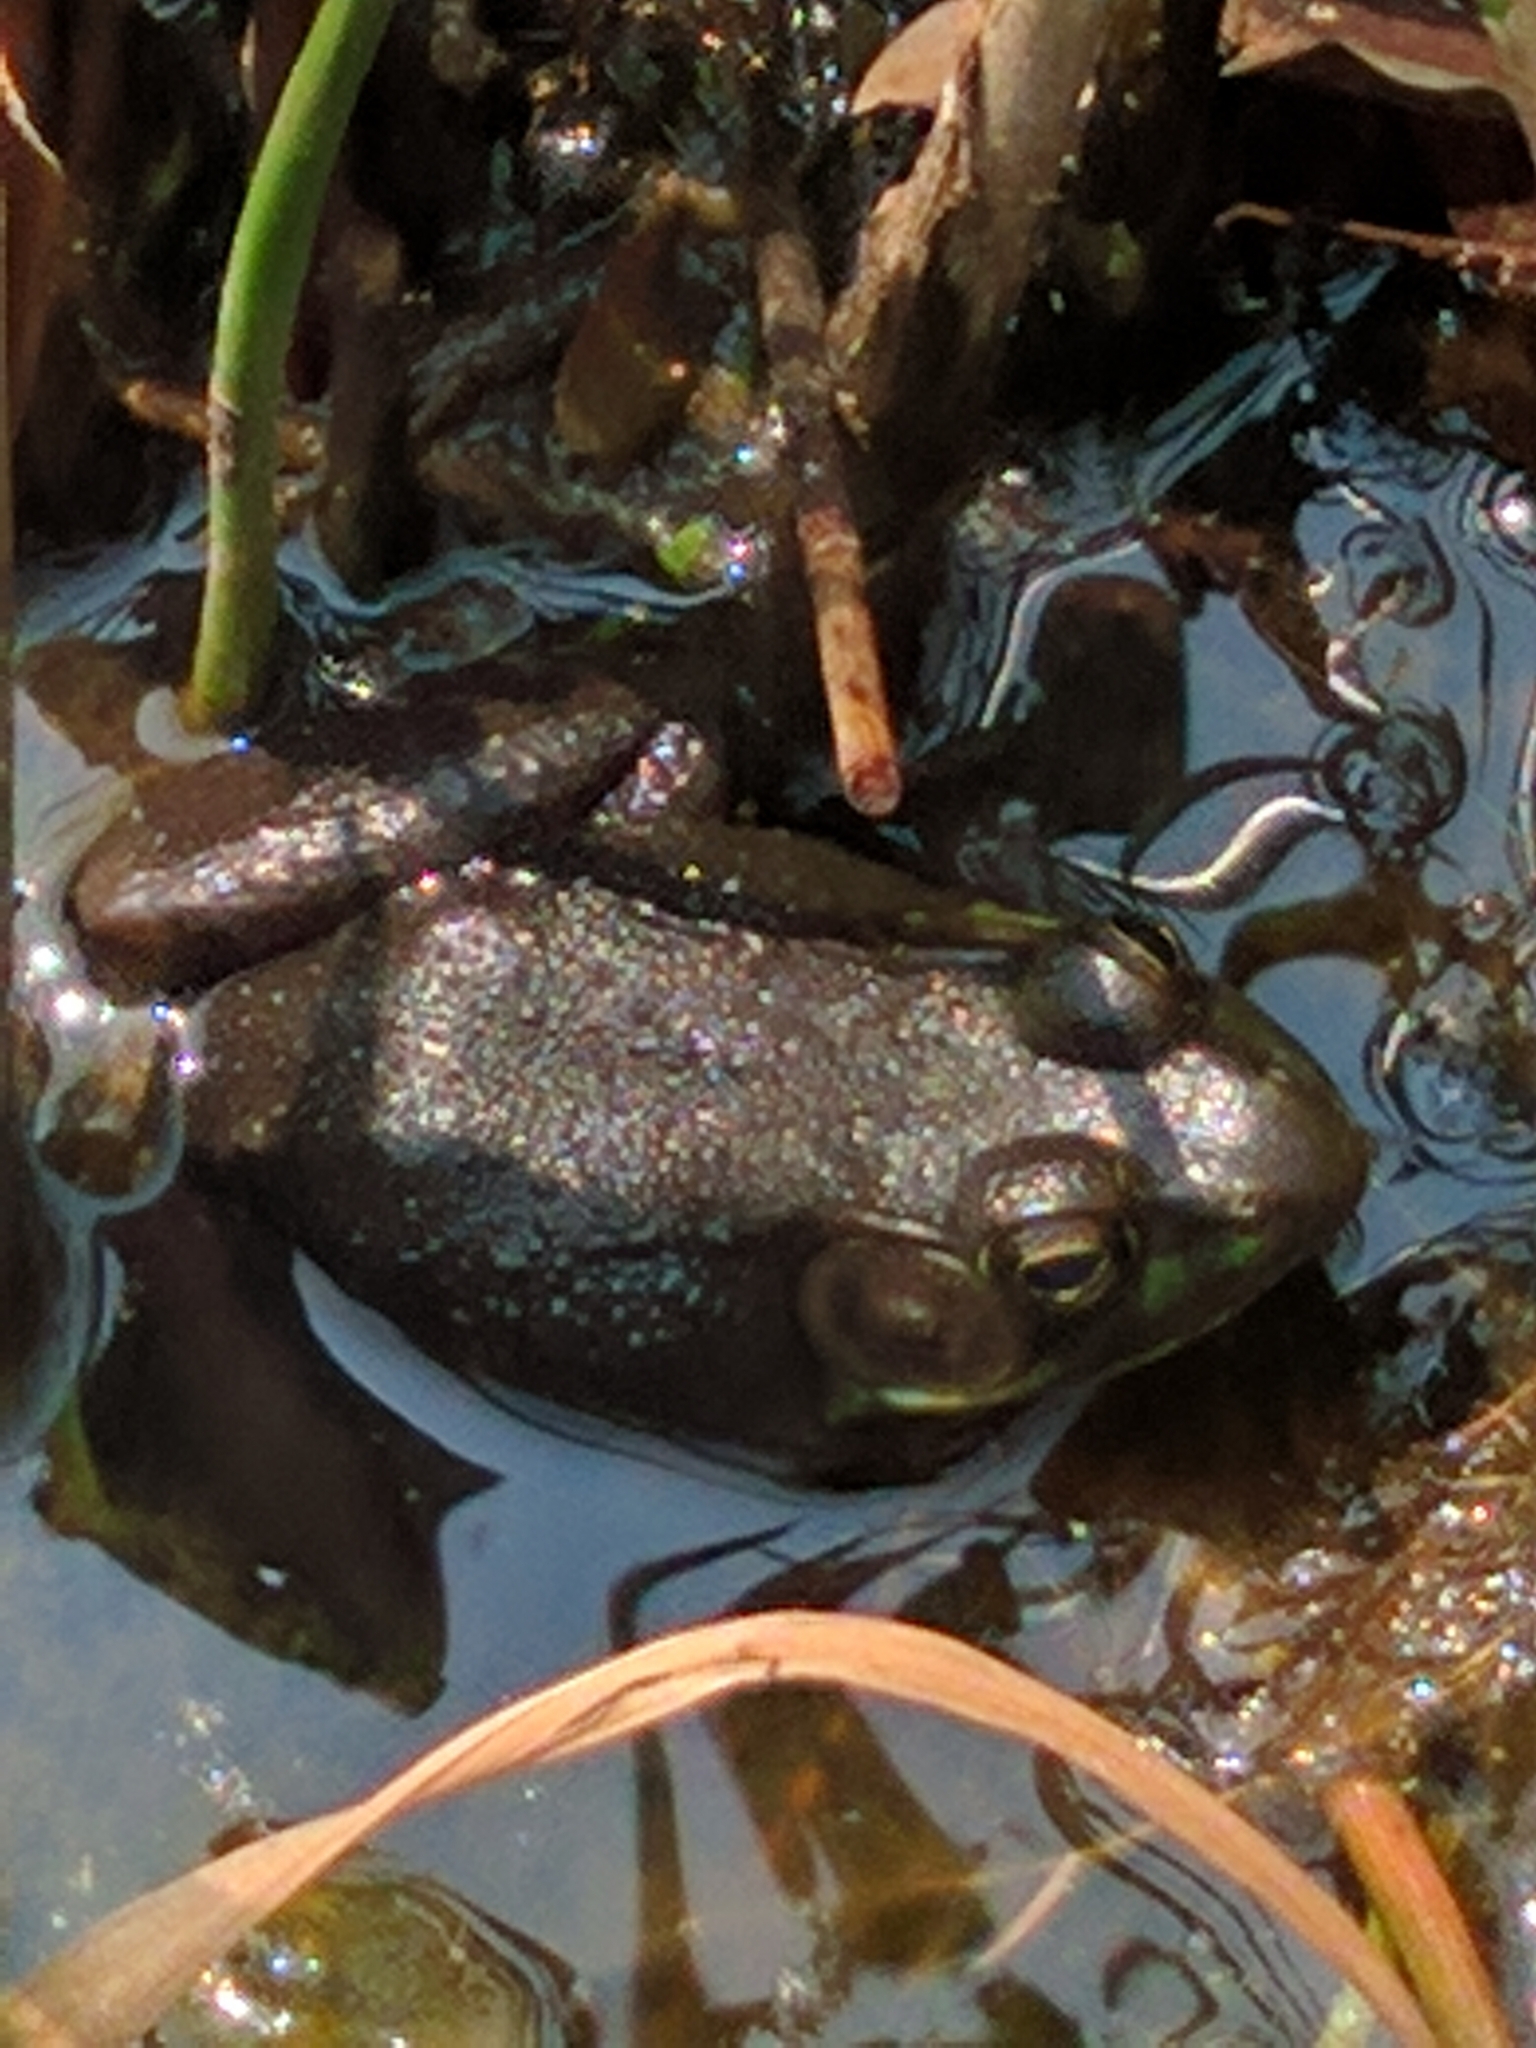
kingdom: Animalia
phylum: Chordata
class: Amphibia
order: Anura
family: Ranidae
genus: Lithobates
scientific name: Lithobates clamitans
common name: Green frog
